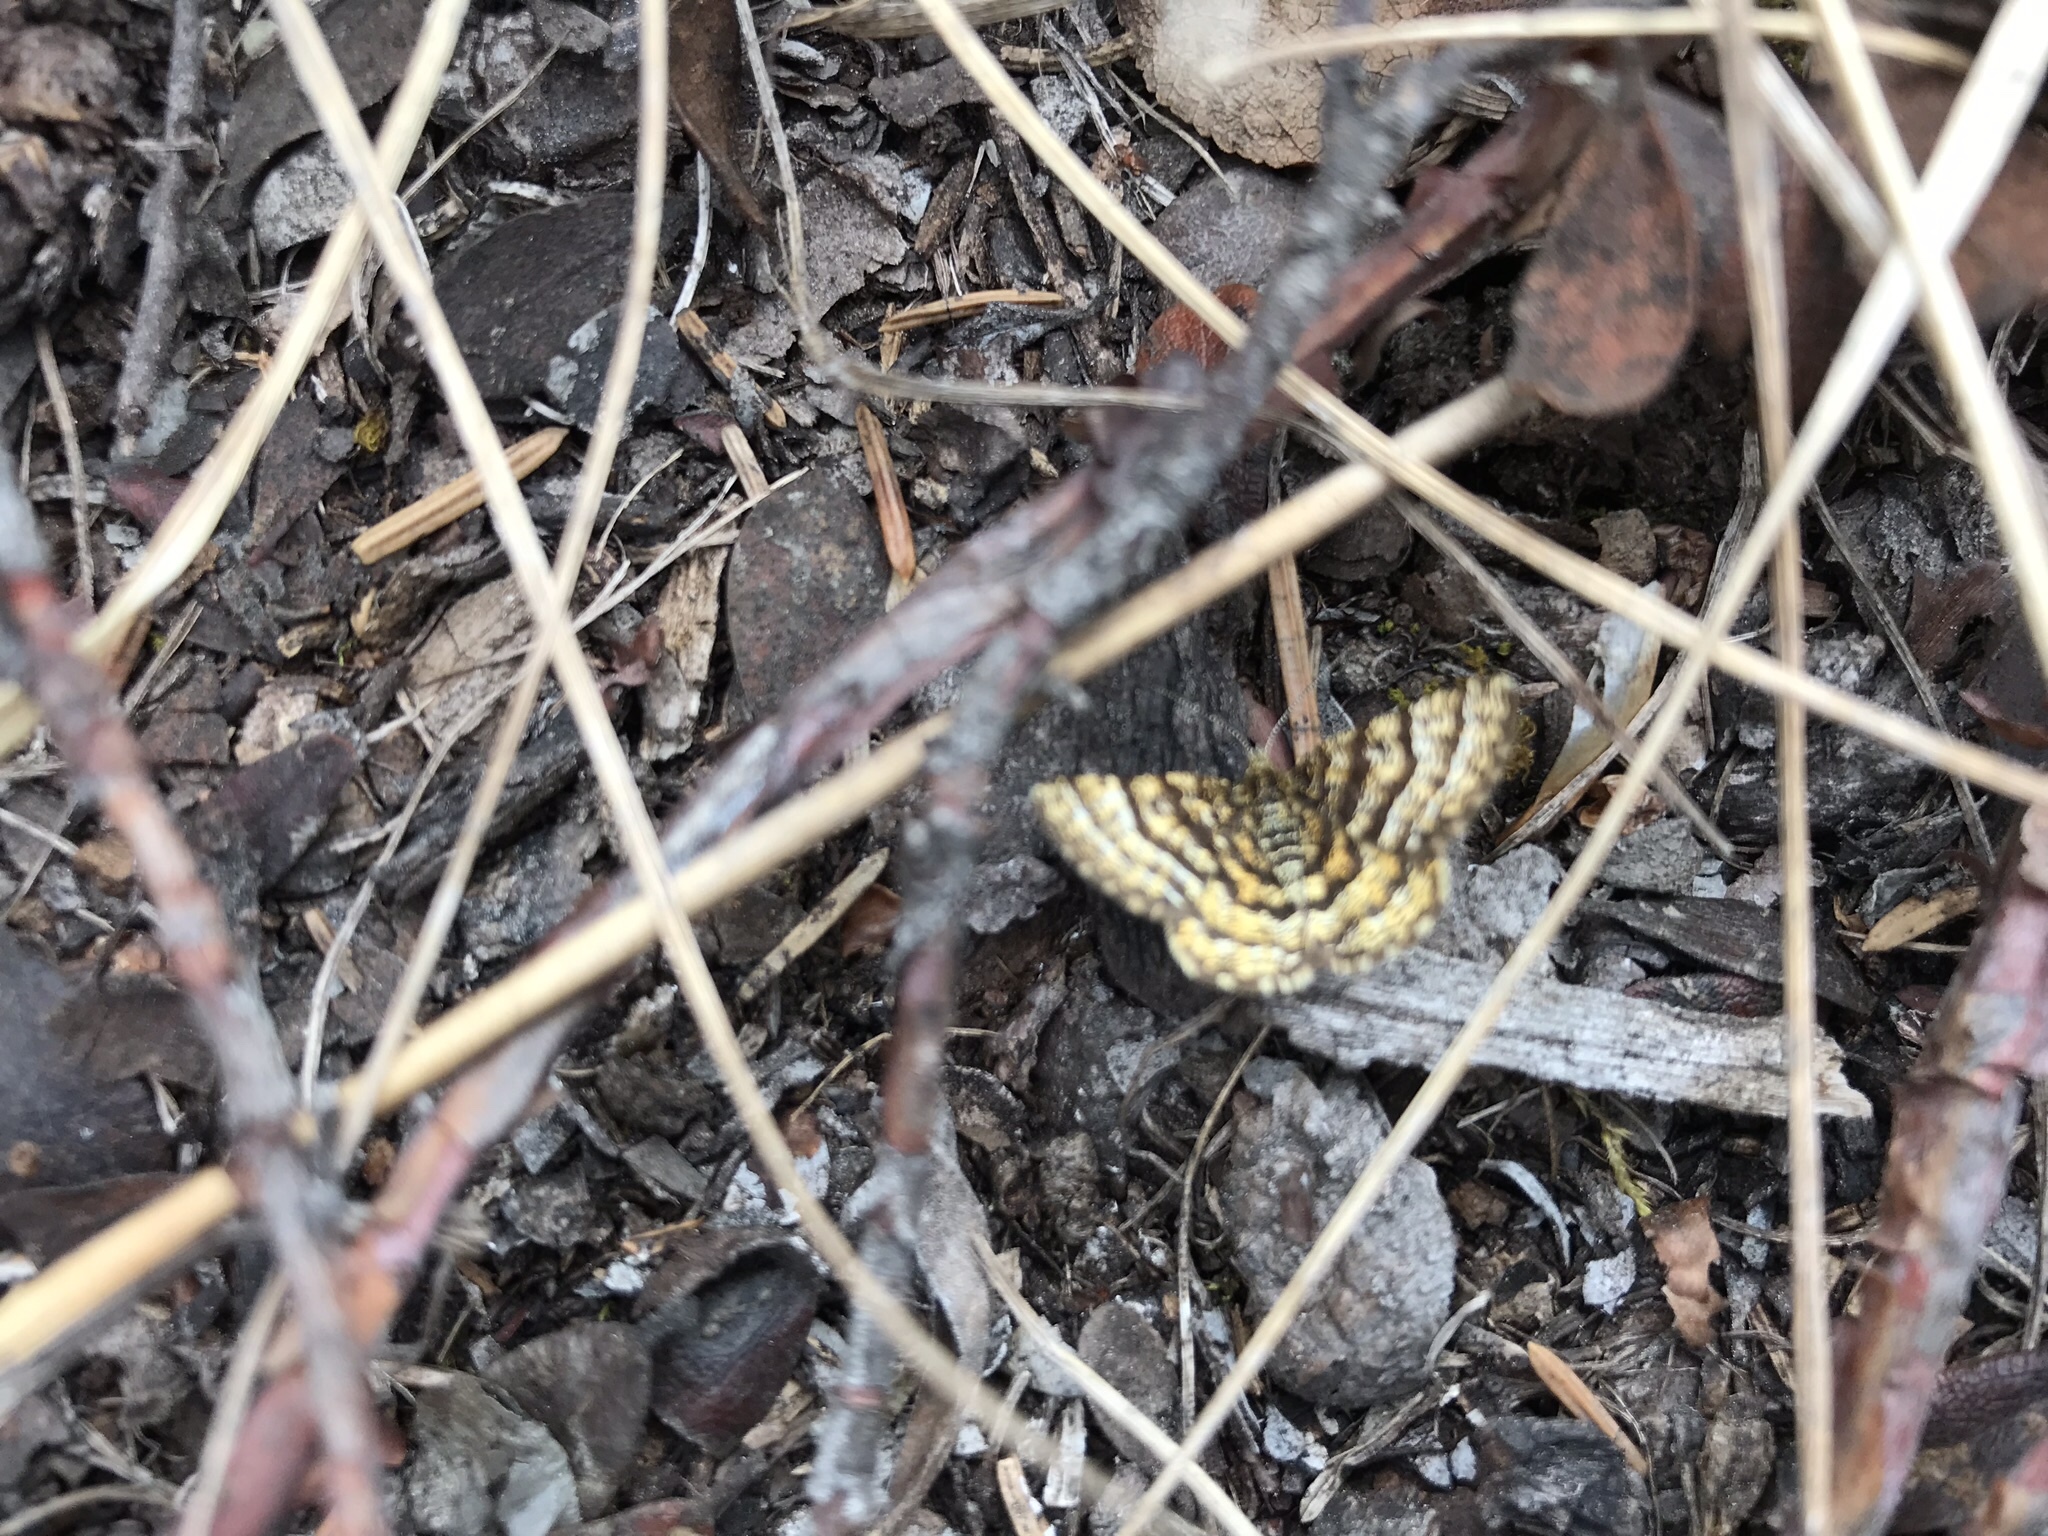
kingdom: Animalia
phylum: Arthropoda
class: Insecta
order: Lepidoptera
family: Geometridae
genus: Macaria
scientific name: Macaria truncataria
